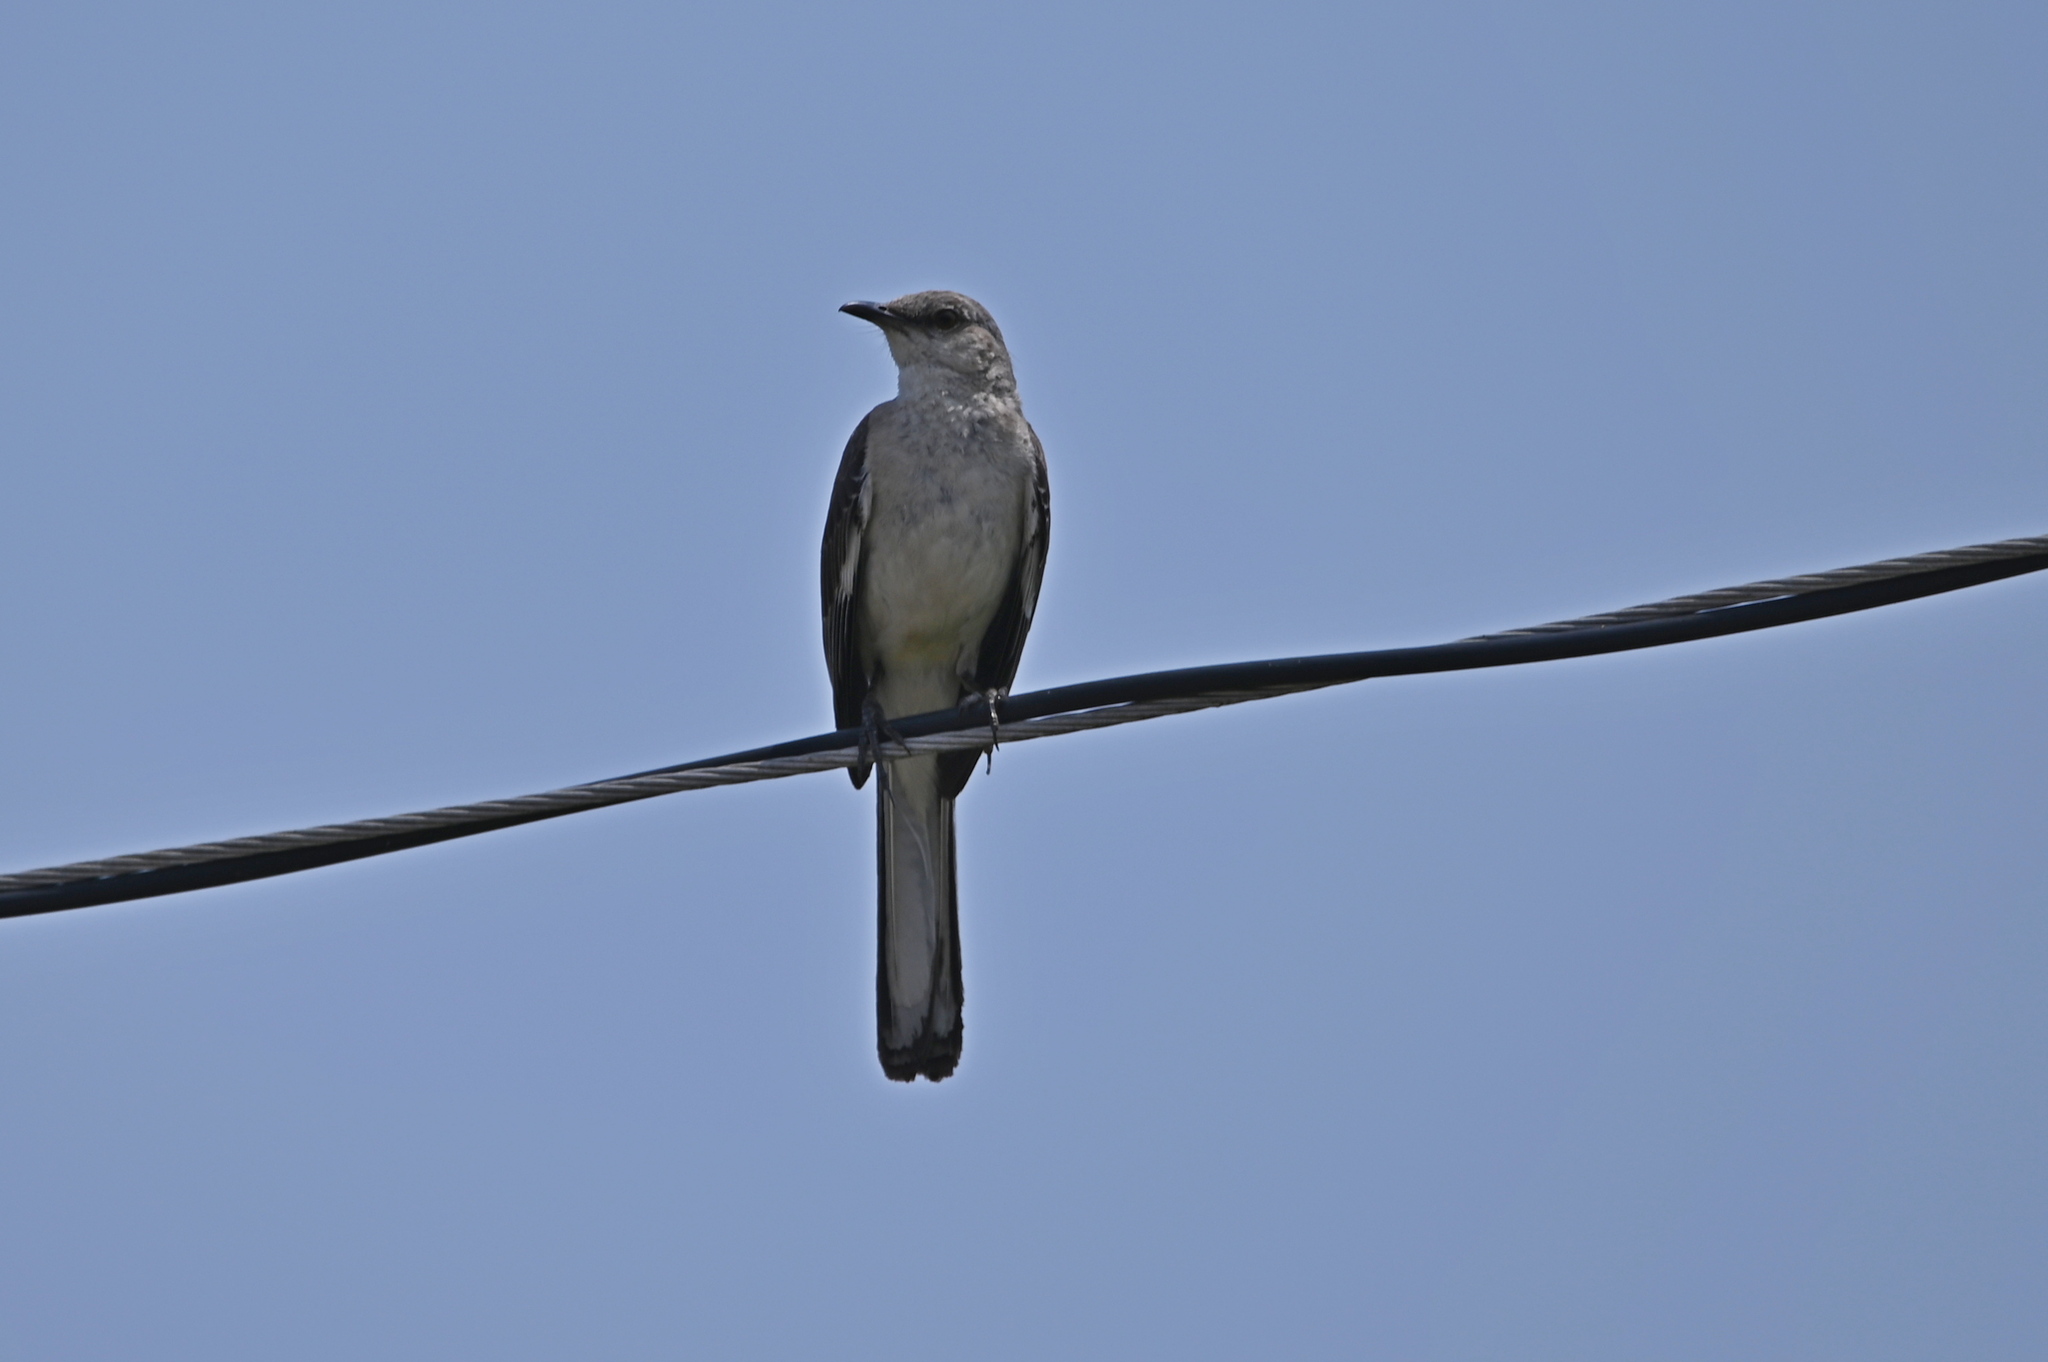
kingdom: Animalia
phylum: Chordata
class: Aves
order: Passeriformes
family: Mimidae
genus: Mimus
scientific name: Mimus polyglottos
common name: Northern mockingbird
